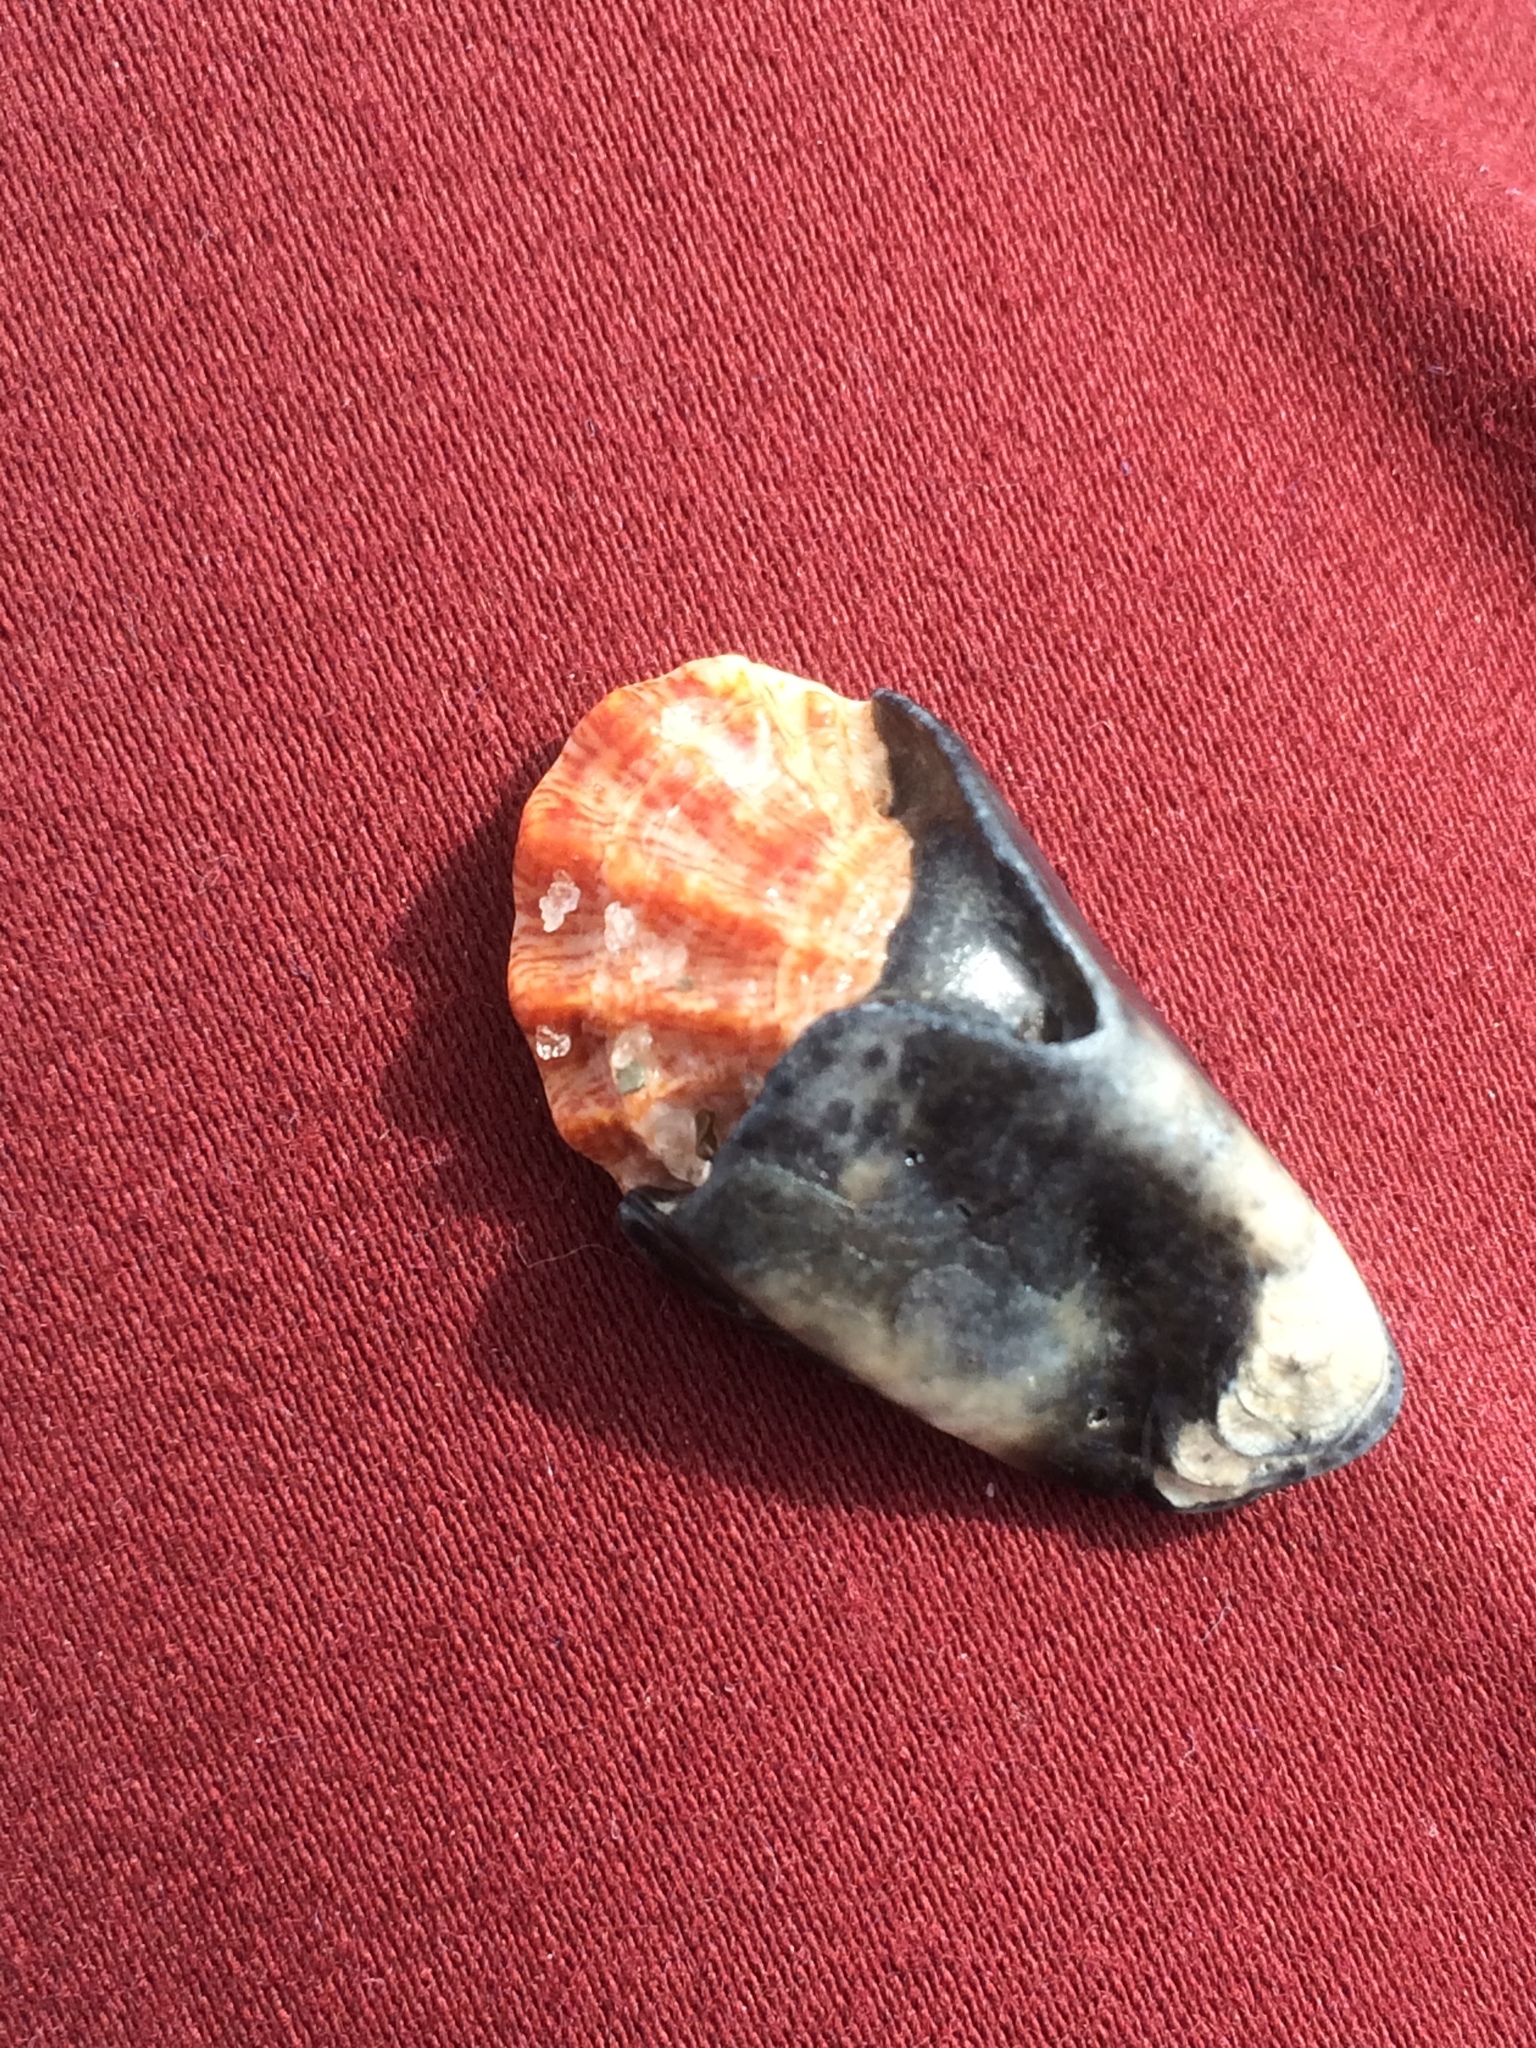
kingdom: Animalia
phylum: Mollusca
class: Bivalvia
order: Pectinida
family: Plicatulidae
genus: Plicatula
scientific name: Plicatula gibbosa
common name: Atlantic kitten's paw
